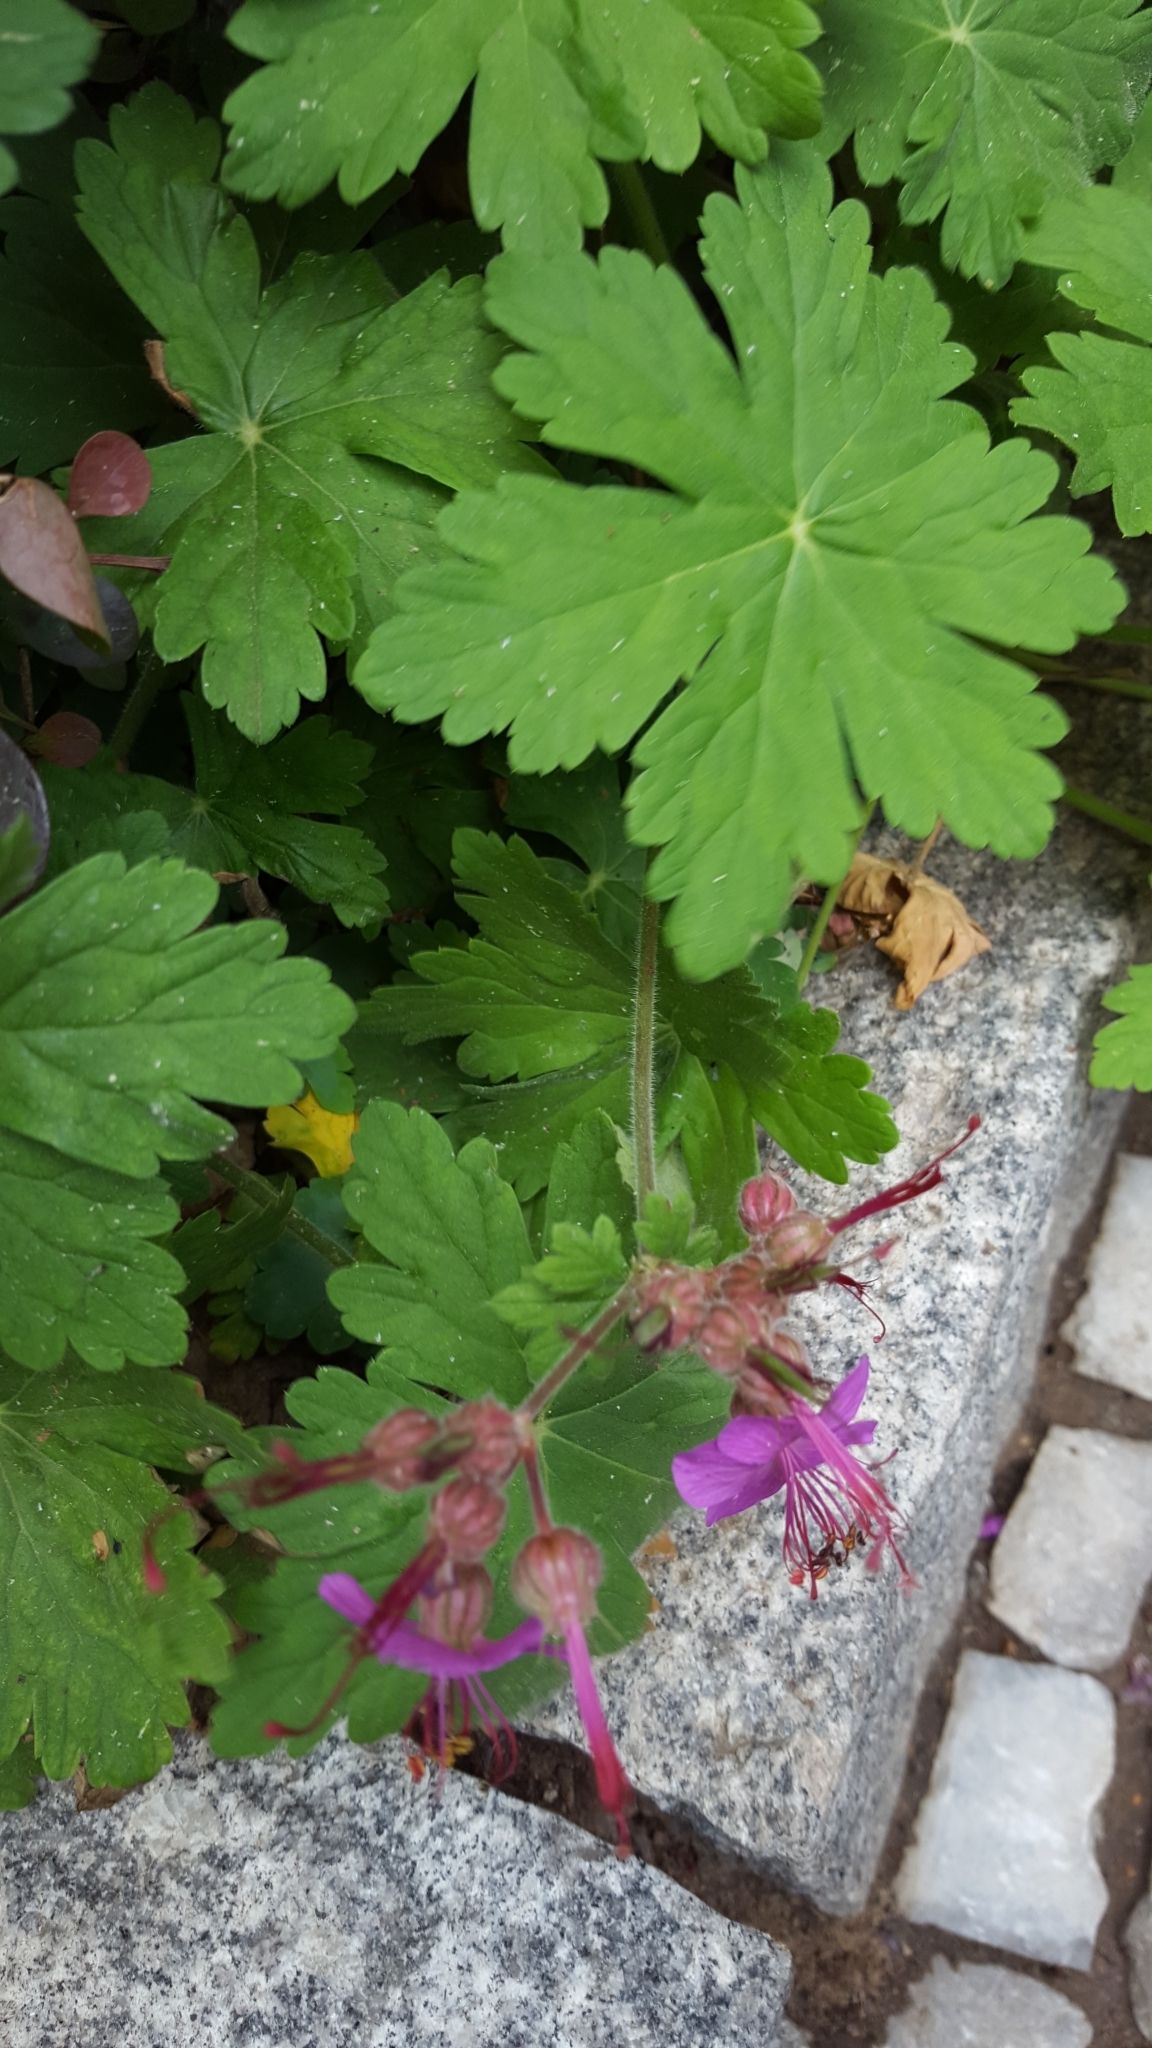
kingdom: Plantae
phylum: Tracheophyta
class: Magnoliopsida
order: Geraniales
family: Geraniaceae
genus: Geranium
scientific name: Geranium macrorrhizum
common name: Rock crane's-bill
